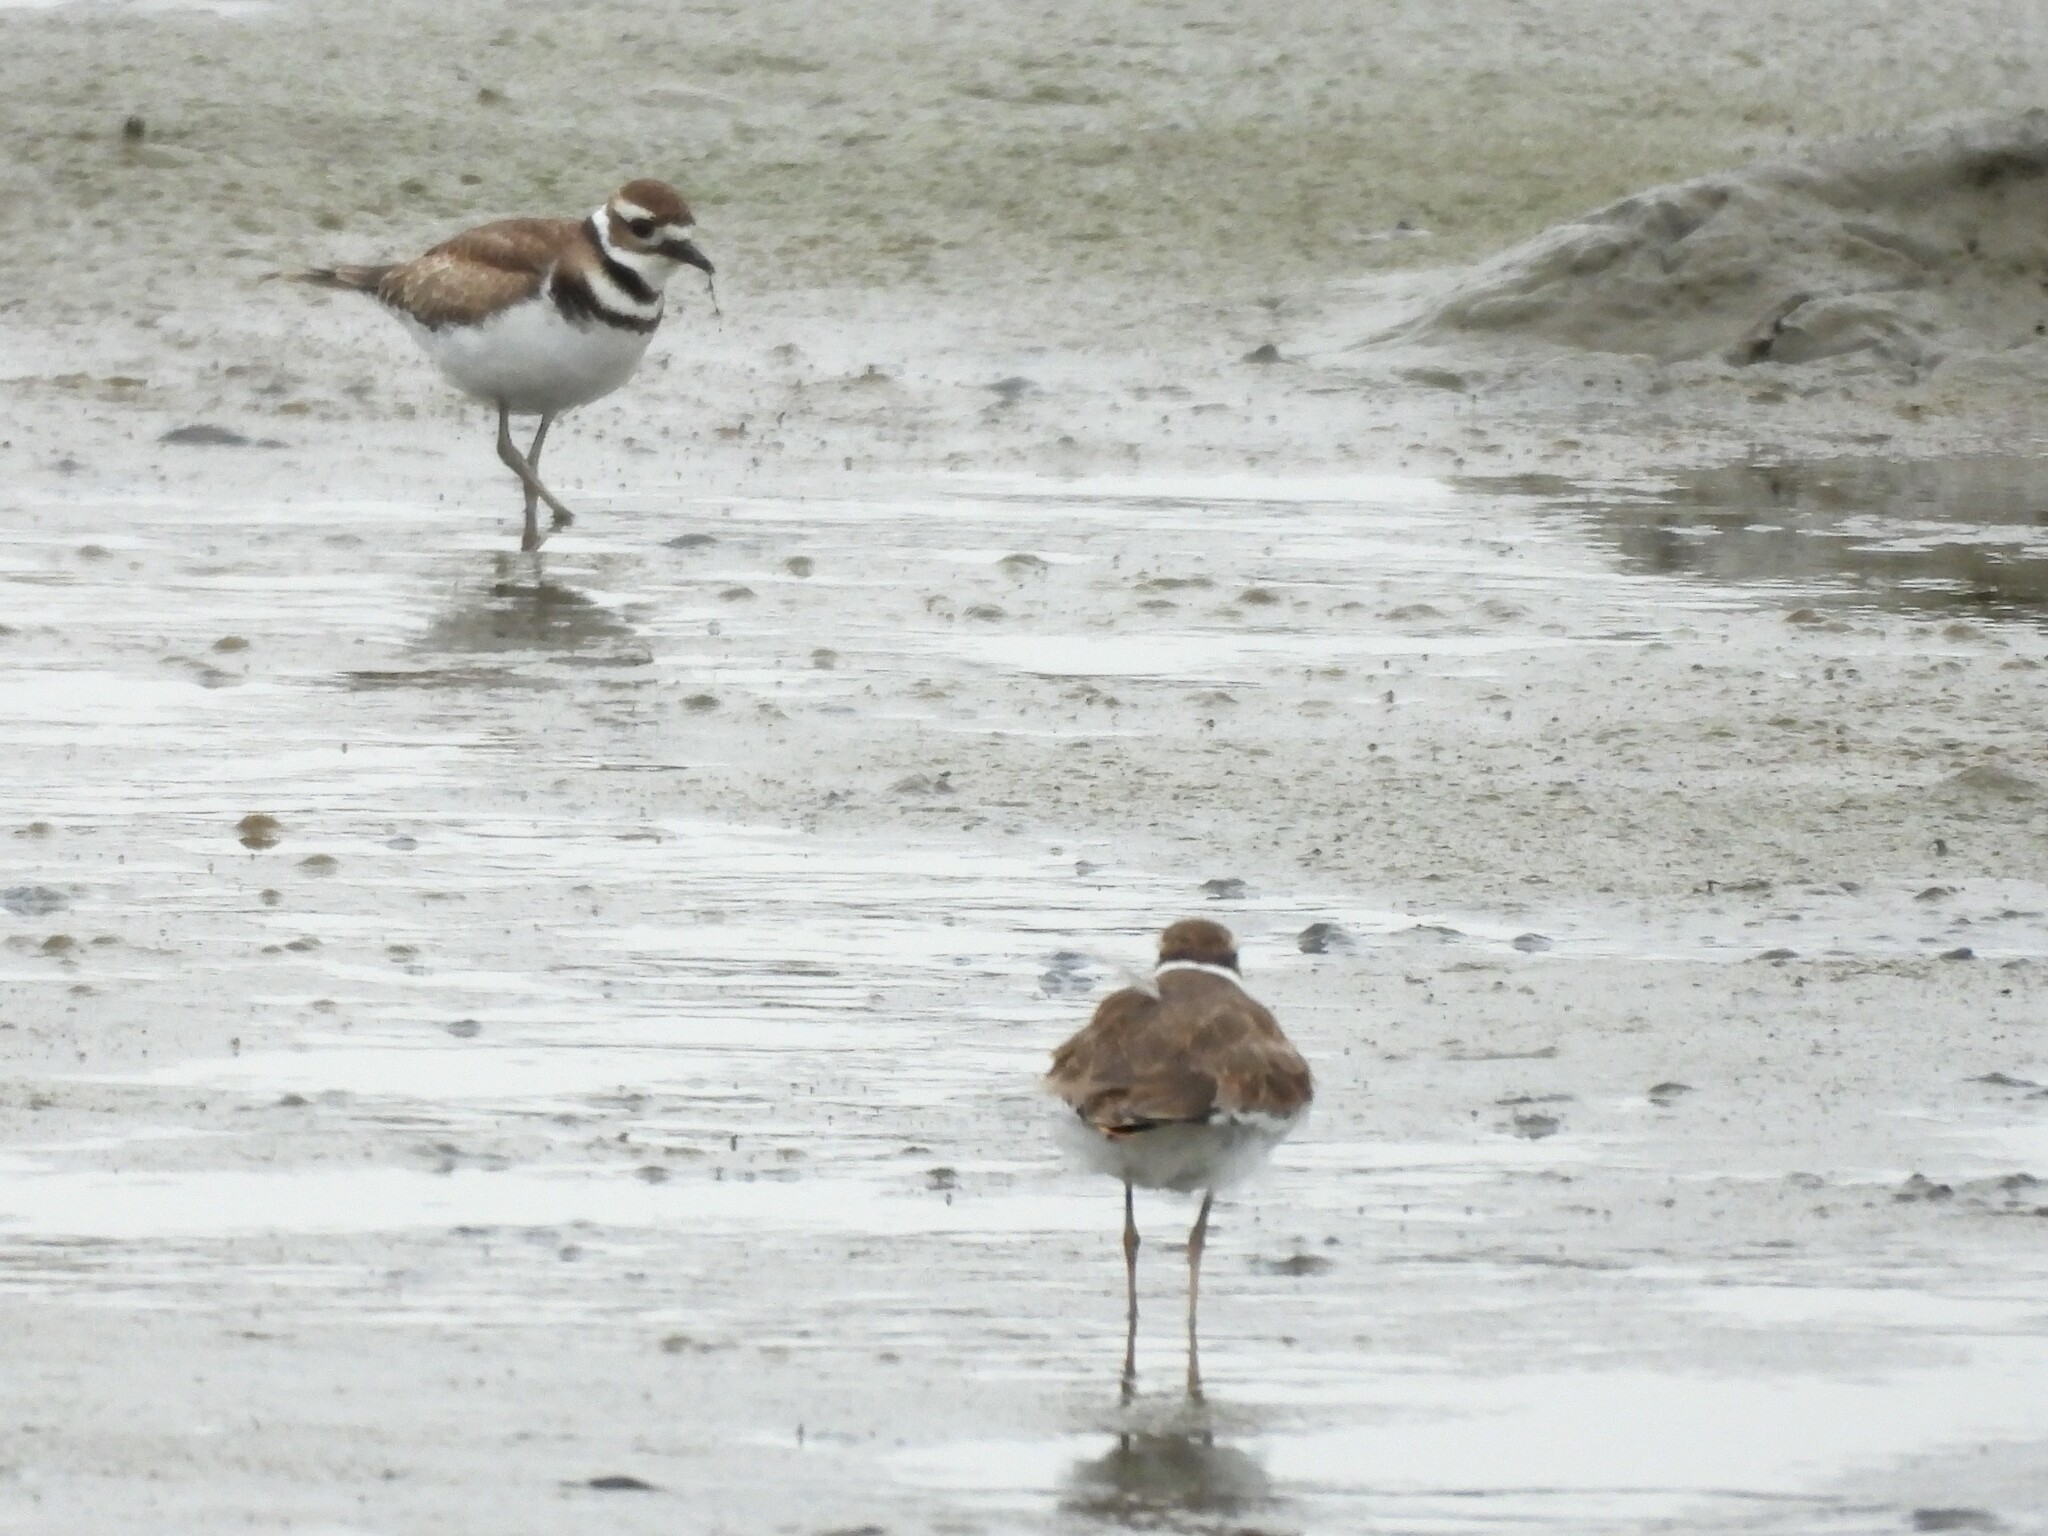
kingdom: Animalia
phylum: Chordata
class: Aves
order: Charadriiformes
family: Charadriidae
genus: Charadrius
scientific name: Charadrius vociferus
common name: Killdeer
